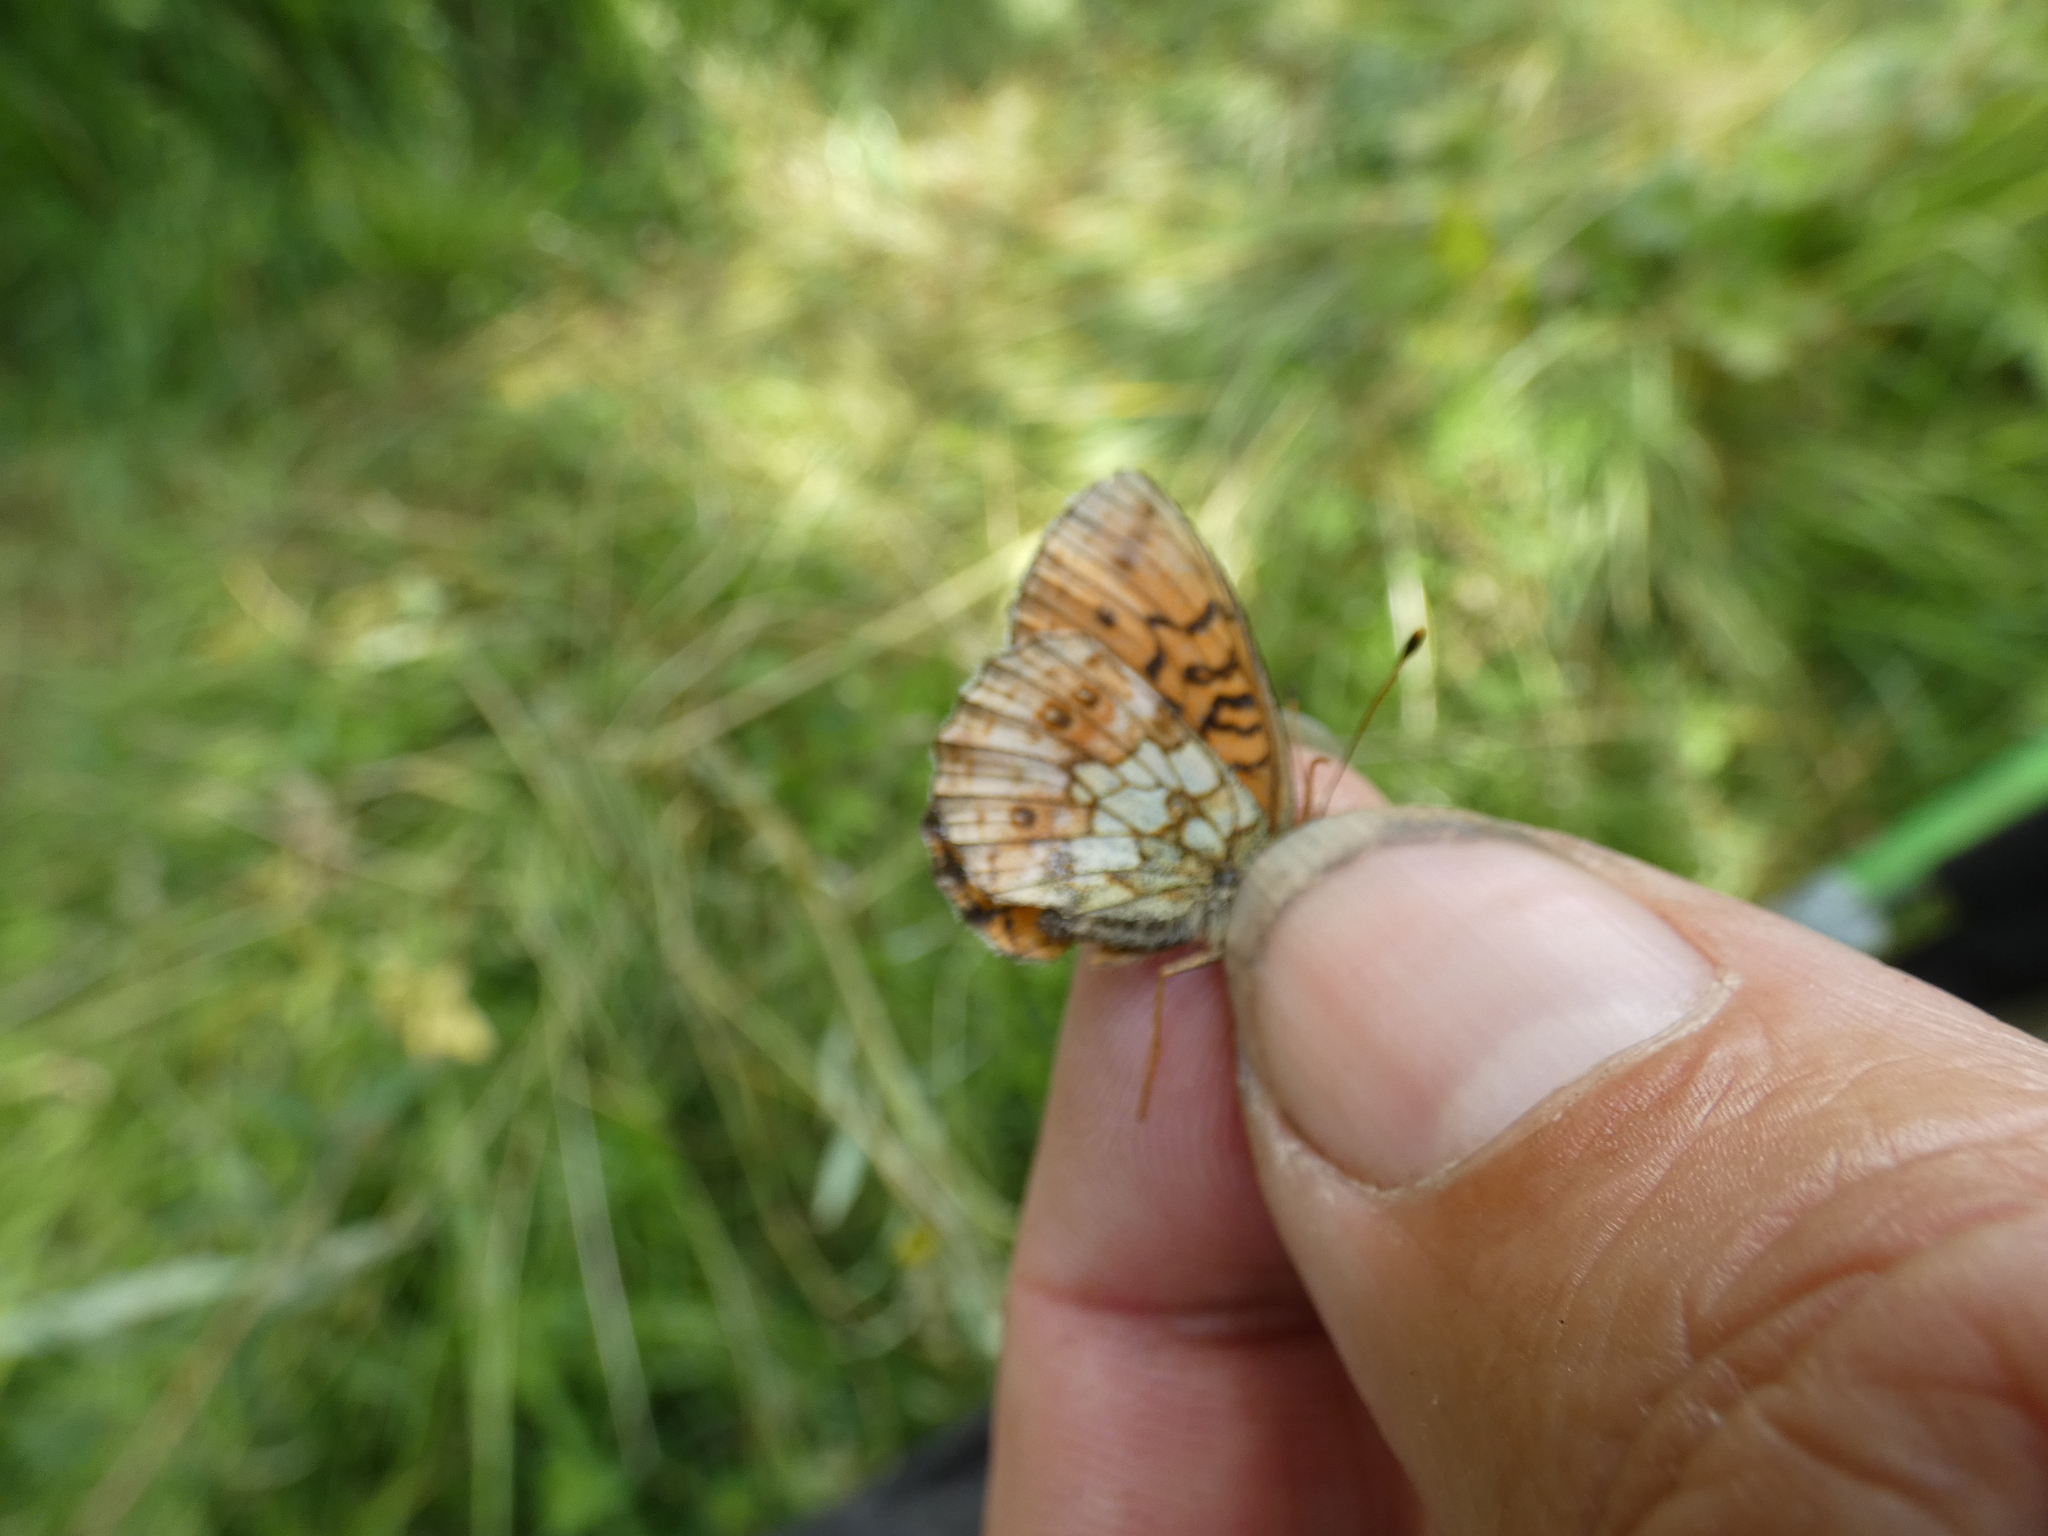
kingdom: Animalia
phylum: Arthropoda
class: Insecta
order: Lepidoptera
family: Nymphalidae
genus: Brenthis
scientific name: Brenthis ino
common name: Lesser marbled fritillary
